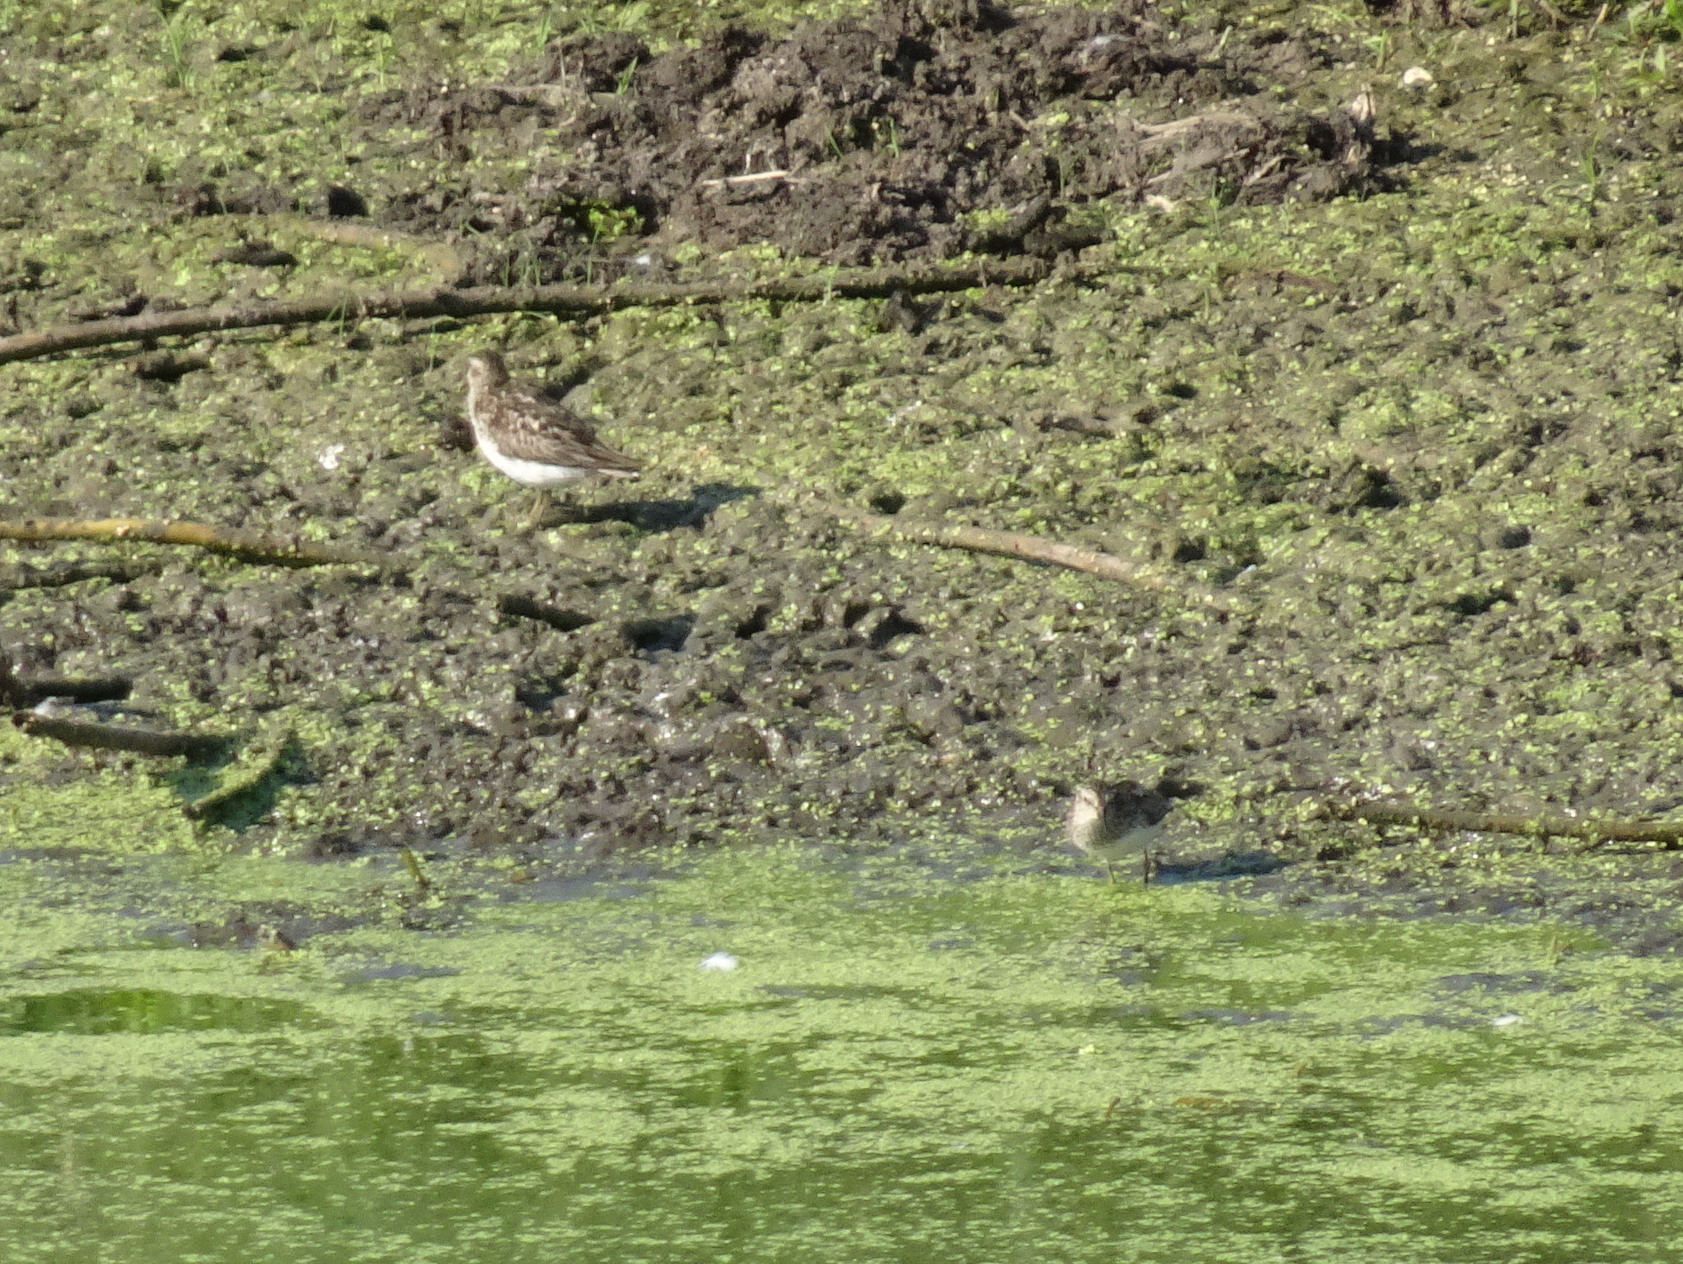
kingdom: Animalia
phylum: Chordata
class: Aves
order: Charadriiformes
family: Scolopacidae
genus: Calidris
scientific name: Calidris minutilla
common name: Least sandpiper
